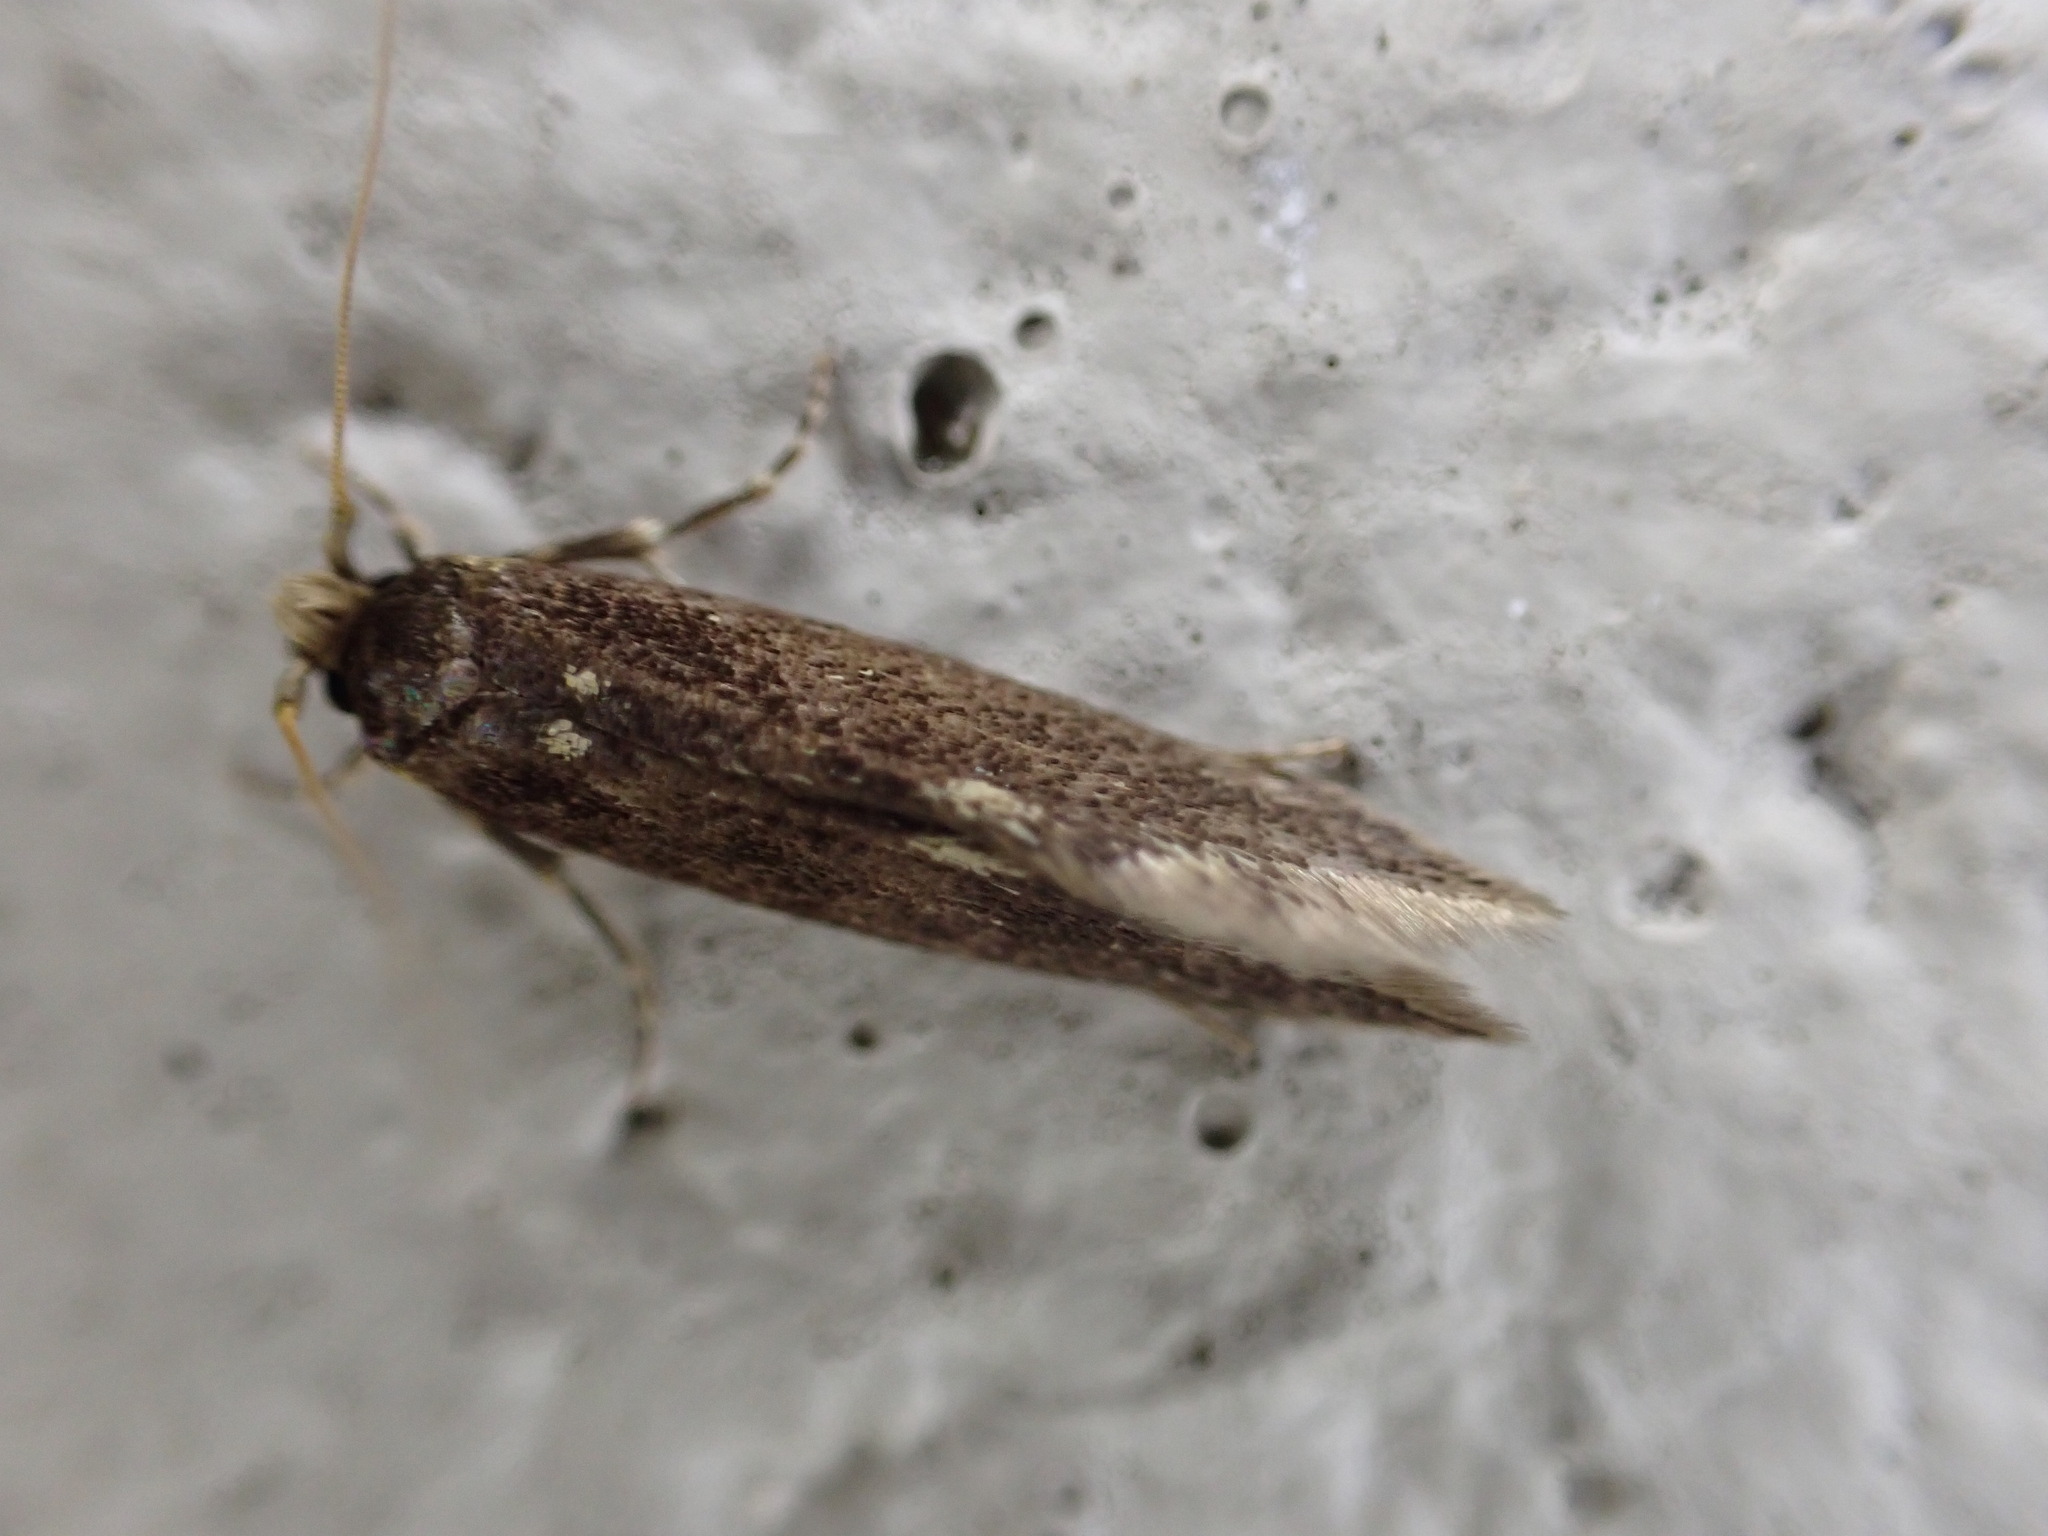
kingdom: Animalia
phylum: Arthropoda
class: Insecta
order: Lepidoptera
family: Tineidae
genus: Opogona
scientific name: Opogona omoscopa
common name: Moth
